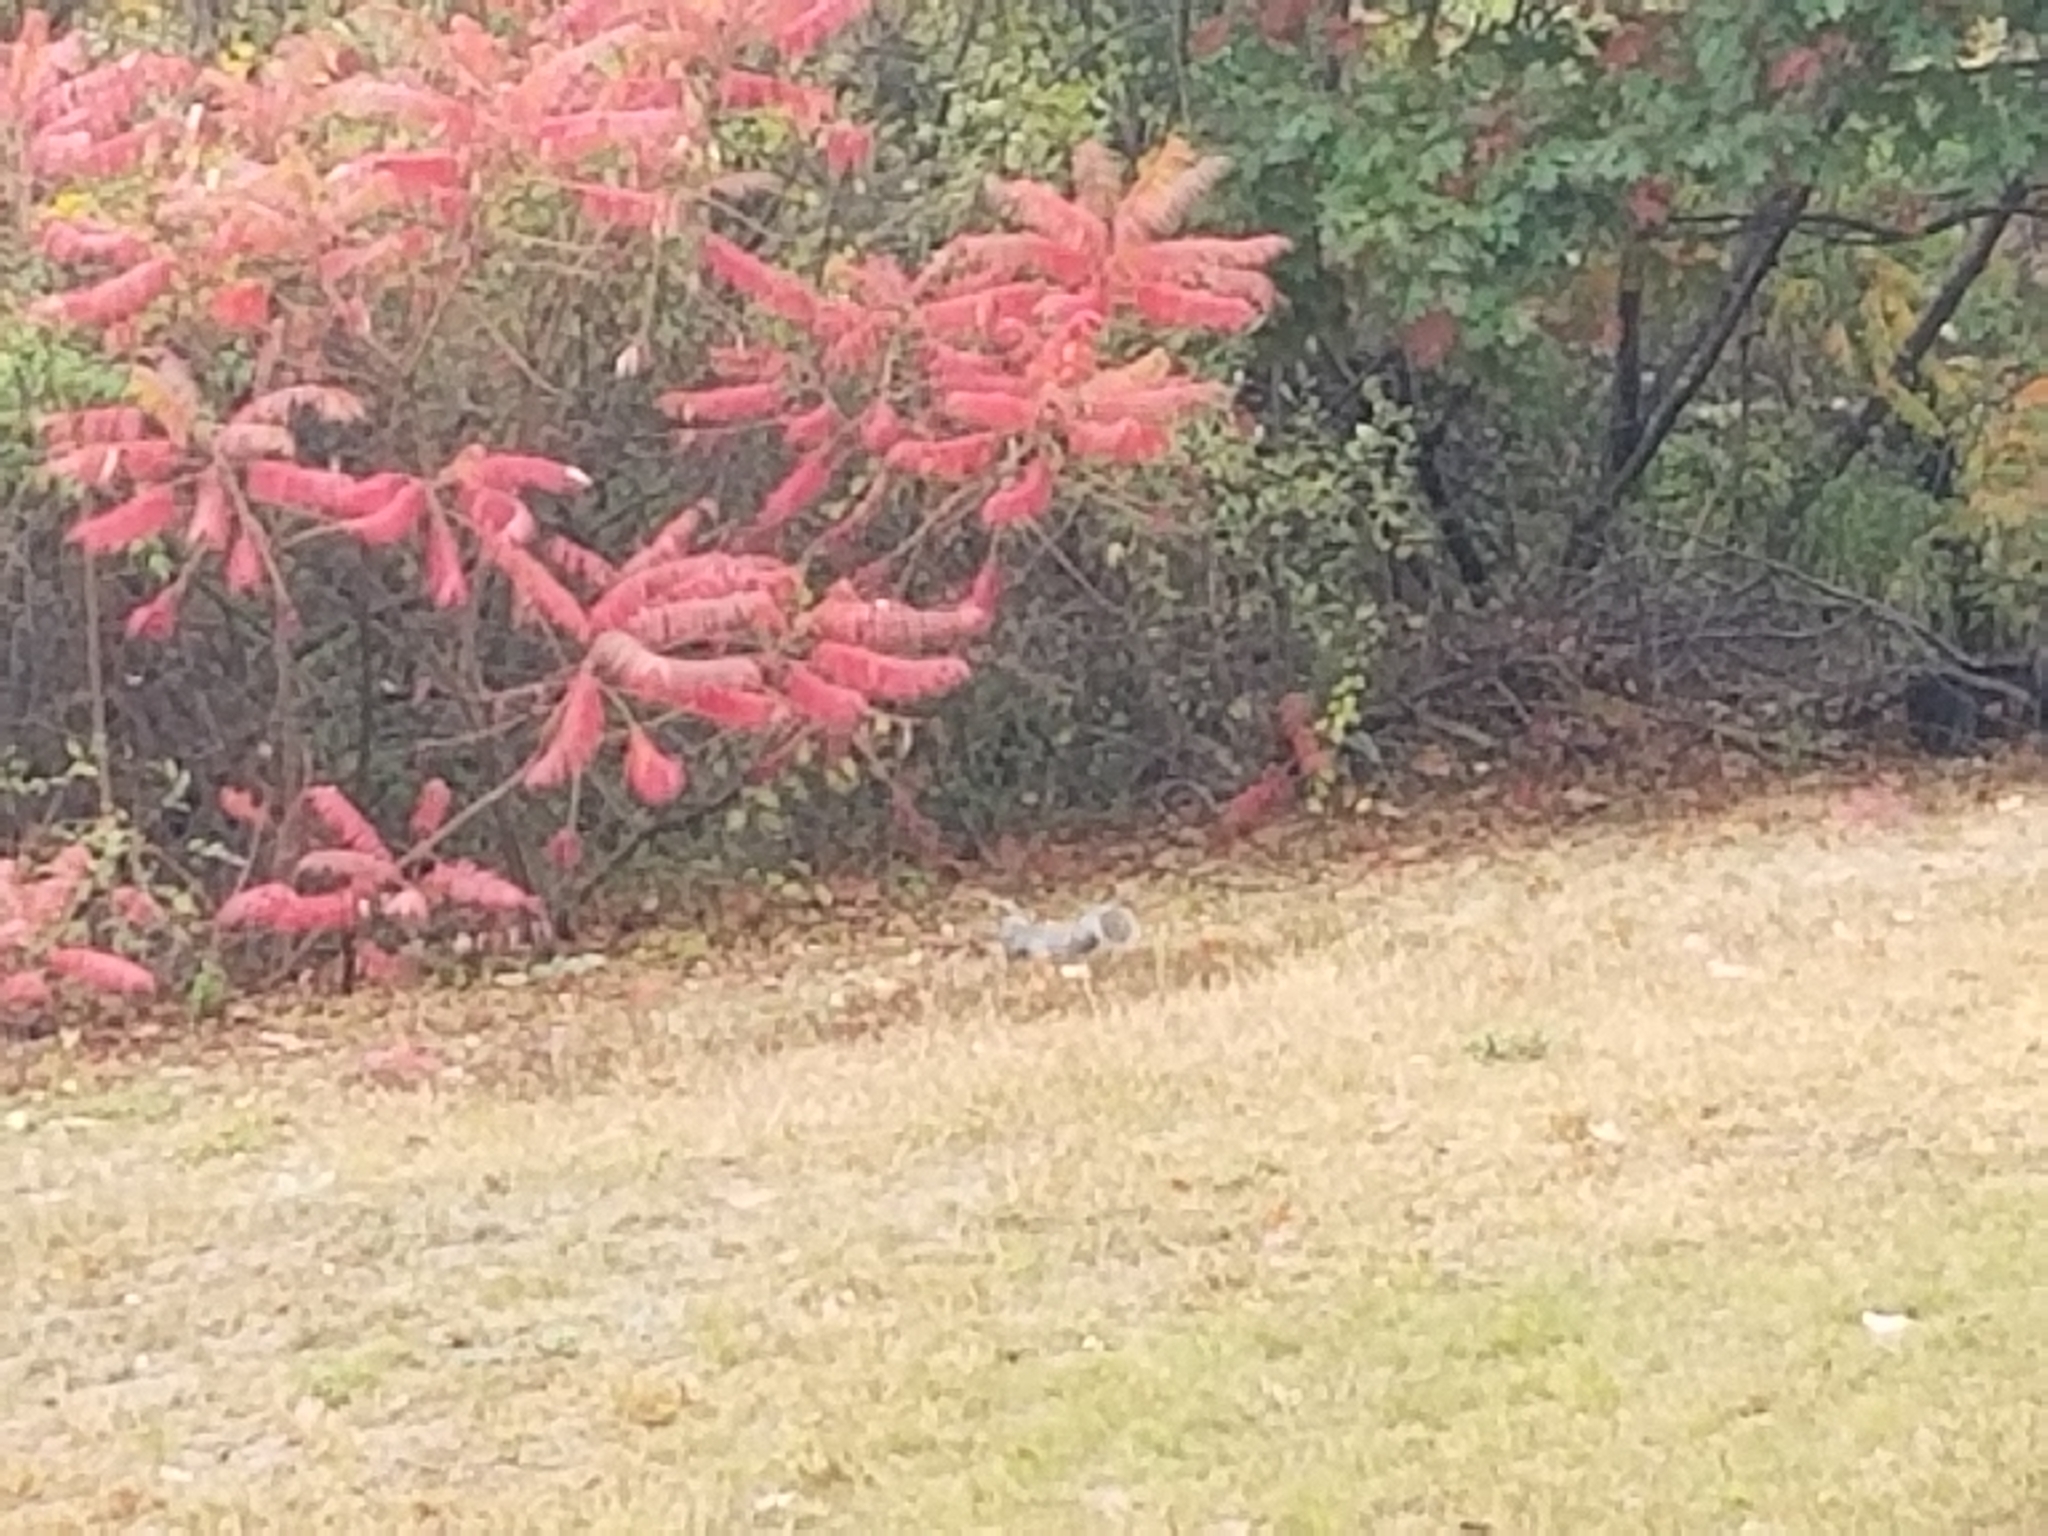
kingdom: Animalia
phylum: Chordata
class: Mammalia
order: Rodentia
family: Sciuridae
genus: Sciurus
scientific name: Sciurus carolinensis
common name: Eastern gray squirrel
